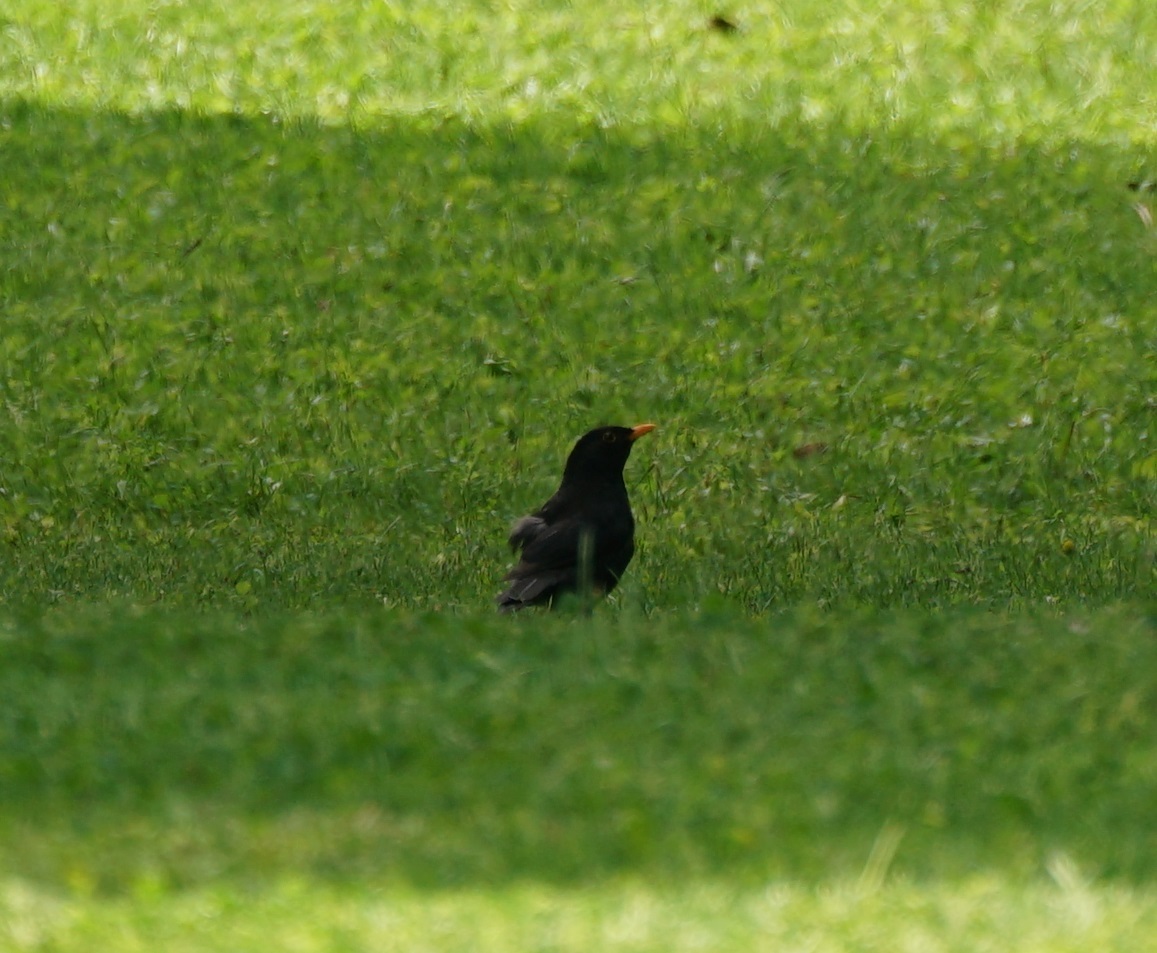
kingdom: Animalia
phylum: Chordata
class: Aves
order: Passeriformes
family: Turdidae
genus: Turdus
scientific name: Turdus merula
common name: Common blackbird
